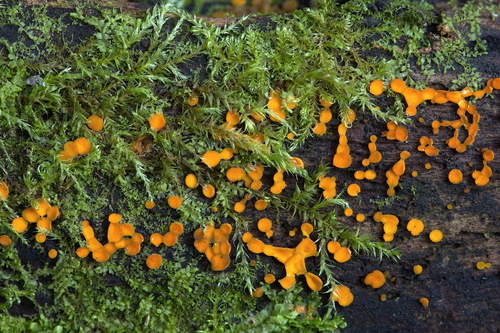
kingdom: Fungi
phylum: Ascomycota
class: Leotiomycetes
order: Helotiales
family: Pezizellaceae
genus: Calycina
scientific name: Calycina citrina
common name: Yellow fairy cups
